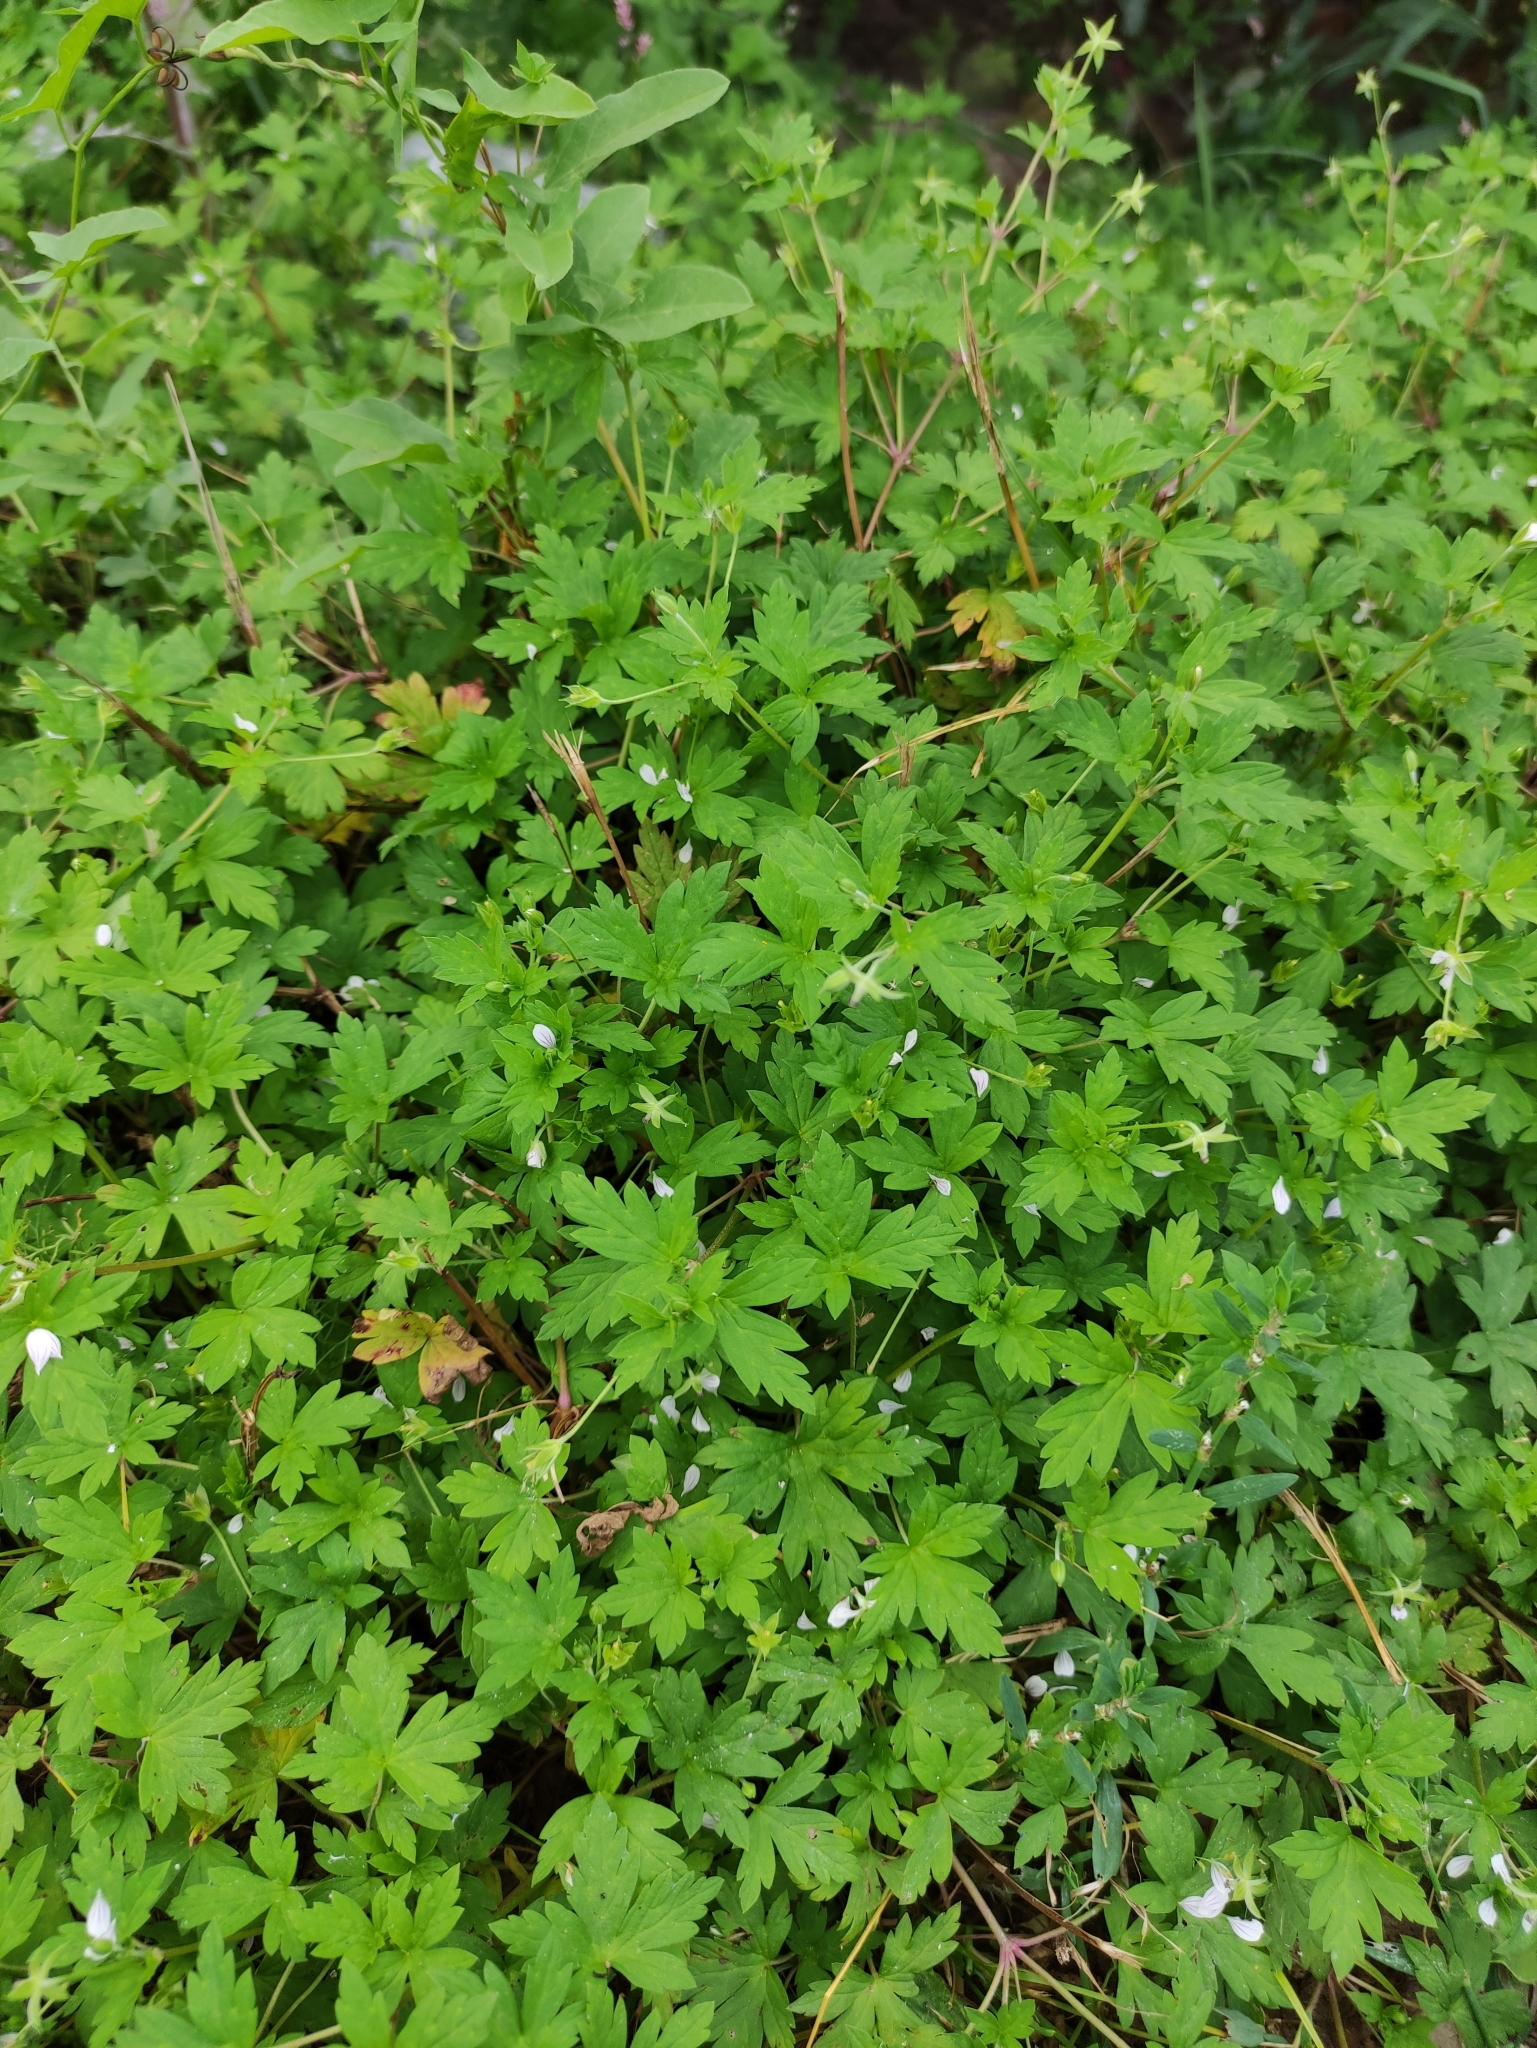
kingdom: Plantae
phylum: Tracheophyta
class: Magnoliopsida
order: Geraniales
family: Geraniaceae
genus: Geranium
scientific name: Geranium sibiricum
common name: Siberian crane's-bill
